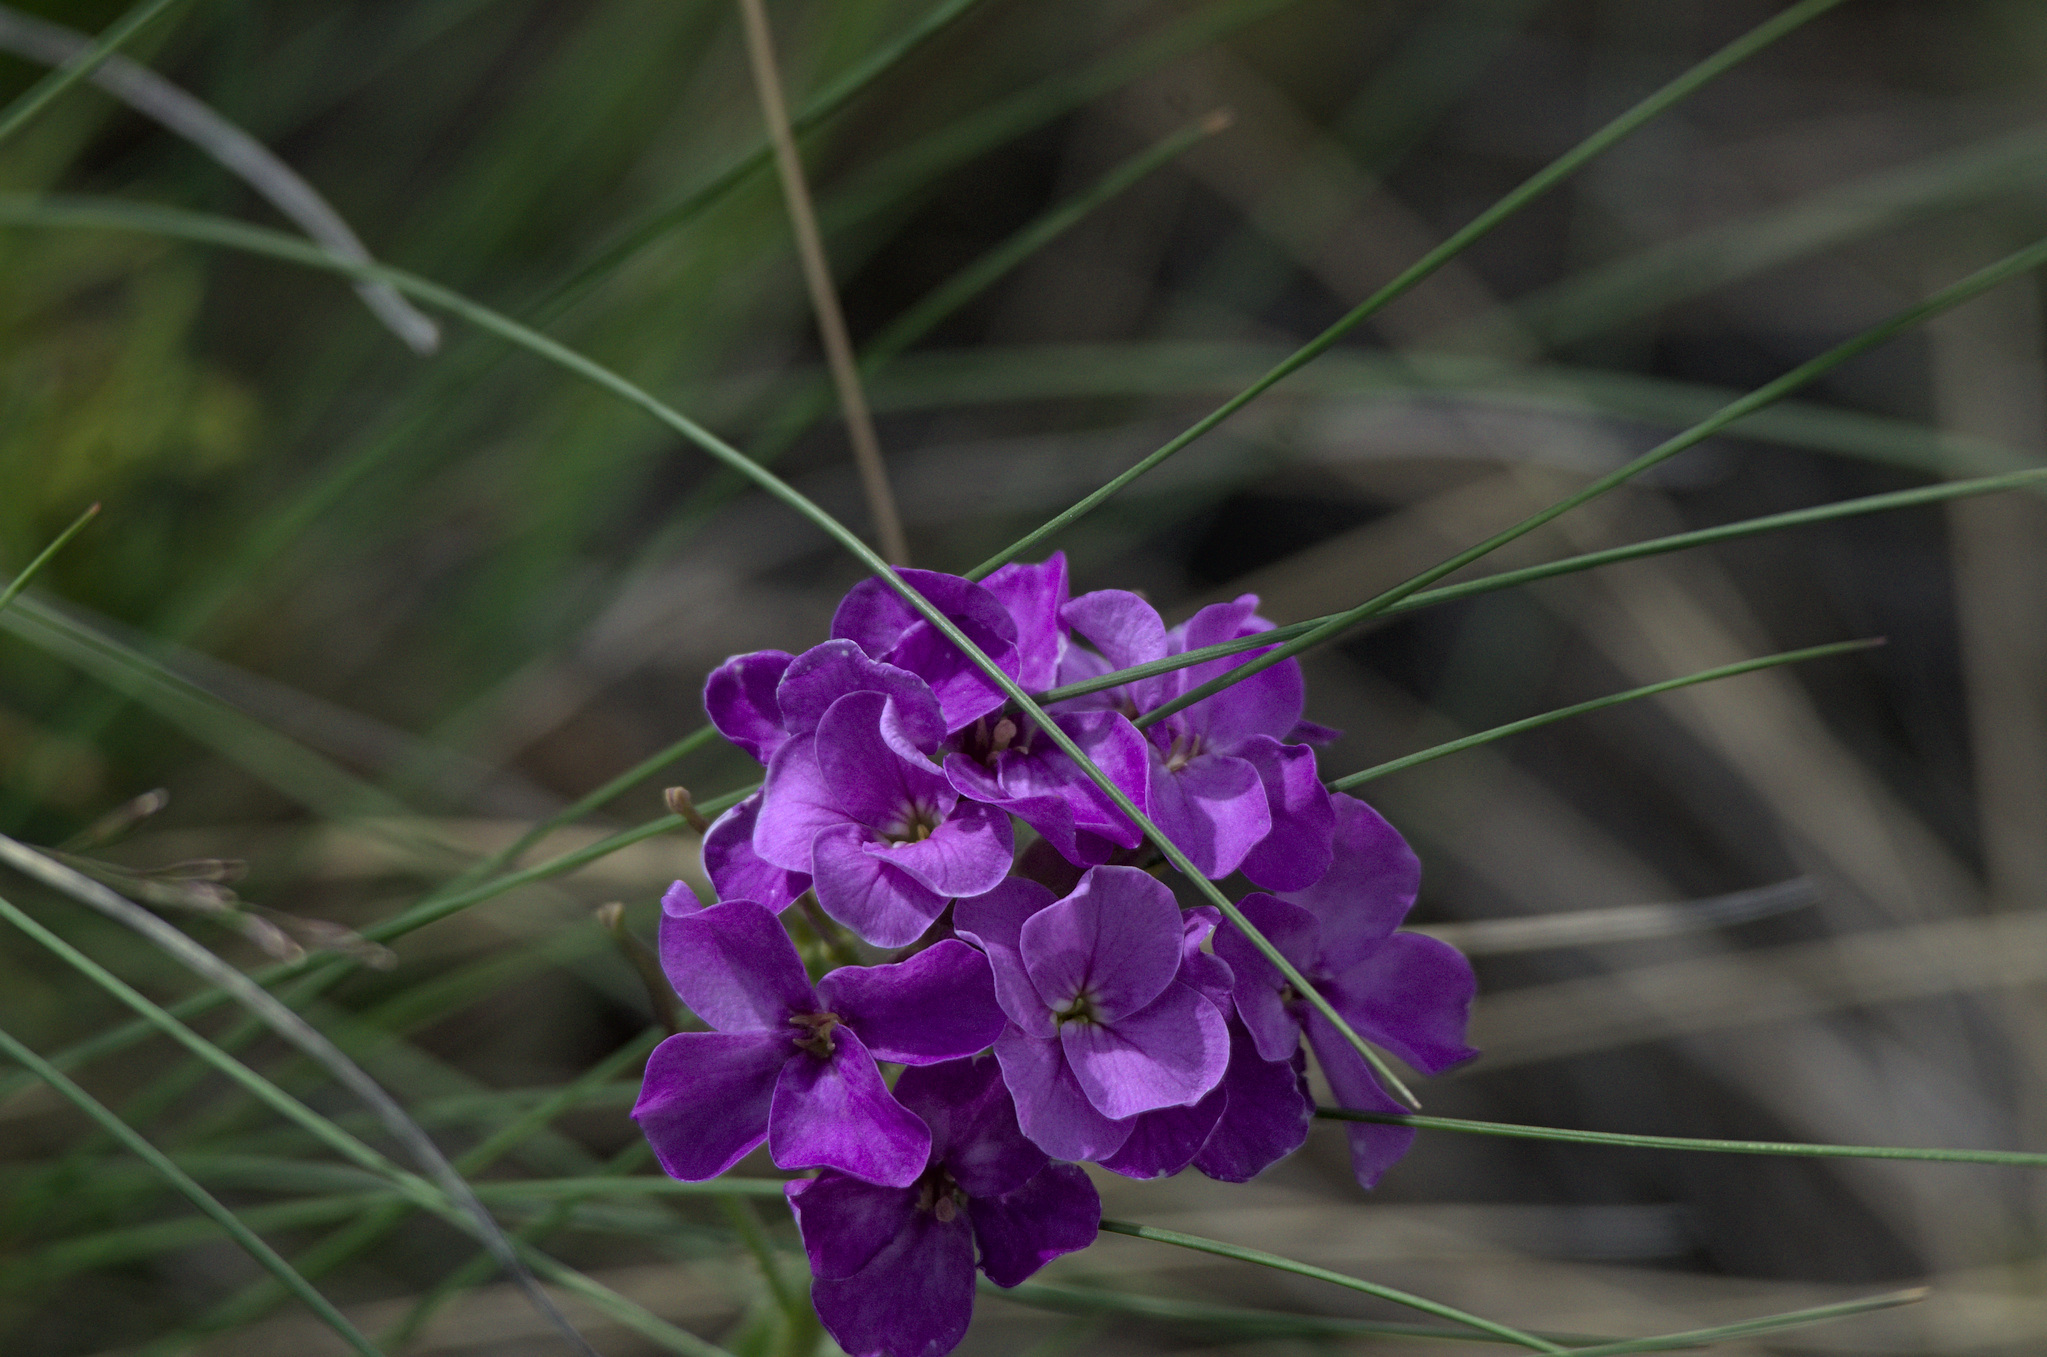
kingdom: Plantae
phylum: Tracheophyta
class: Magnoliopsida
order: Brassicales
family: Brassicaceae
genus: Clausia
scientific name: Clausia aprica
